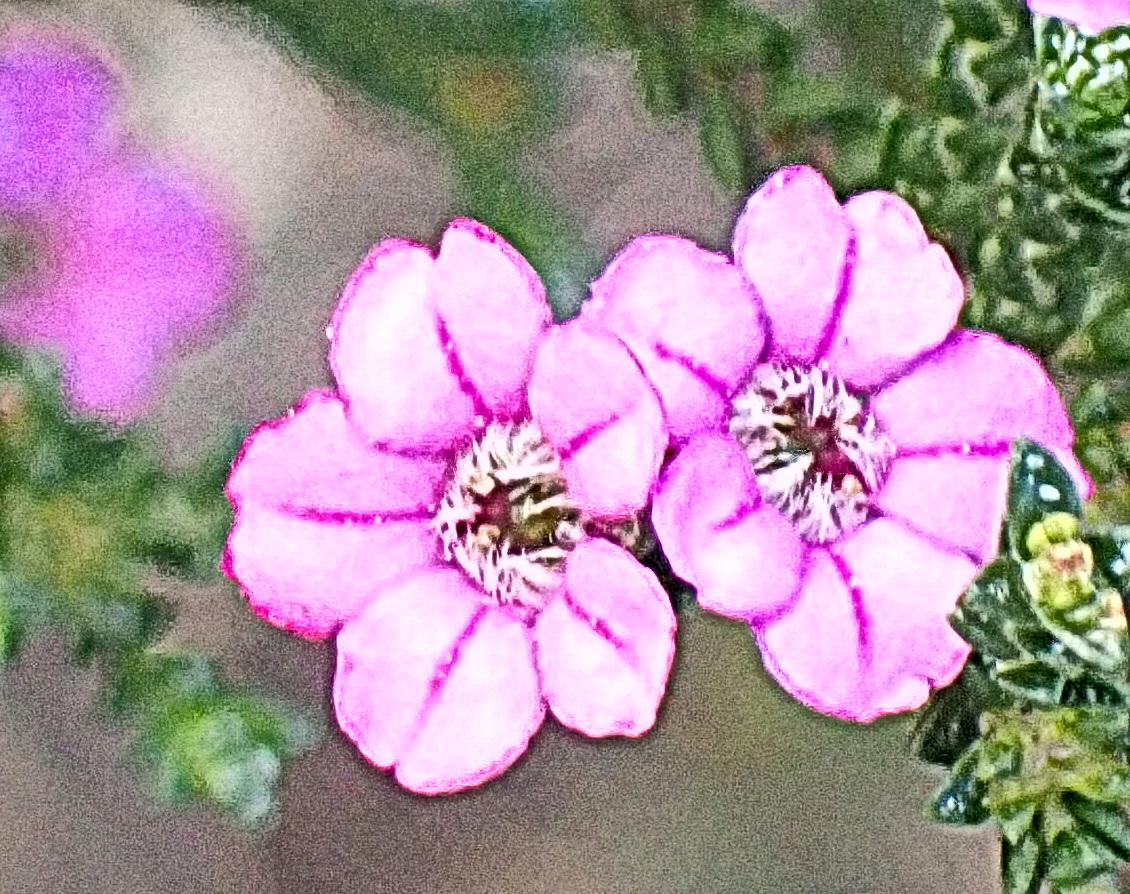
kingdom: Plantae
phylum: Tracheophyta
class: Magnoliopsida
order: Sapindales
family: Rutaceae
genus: Euchaetis
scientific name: Euchaetis albertiniana
